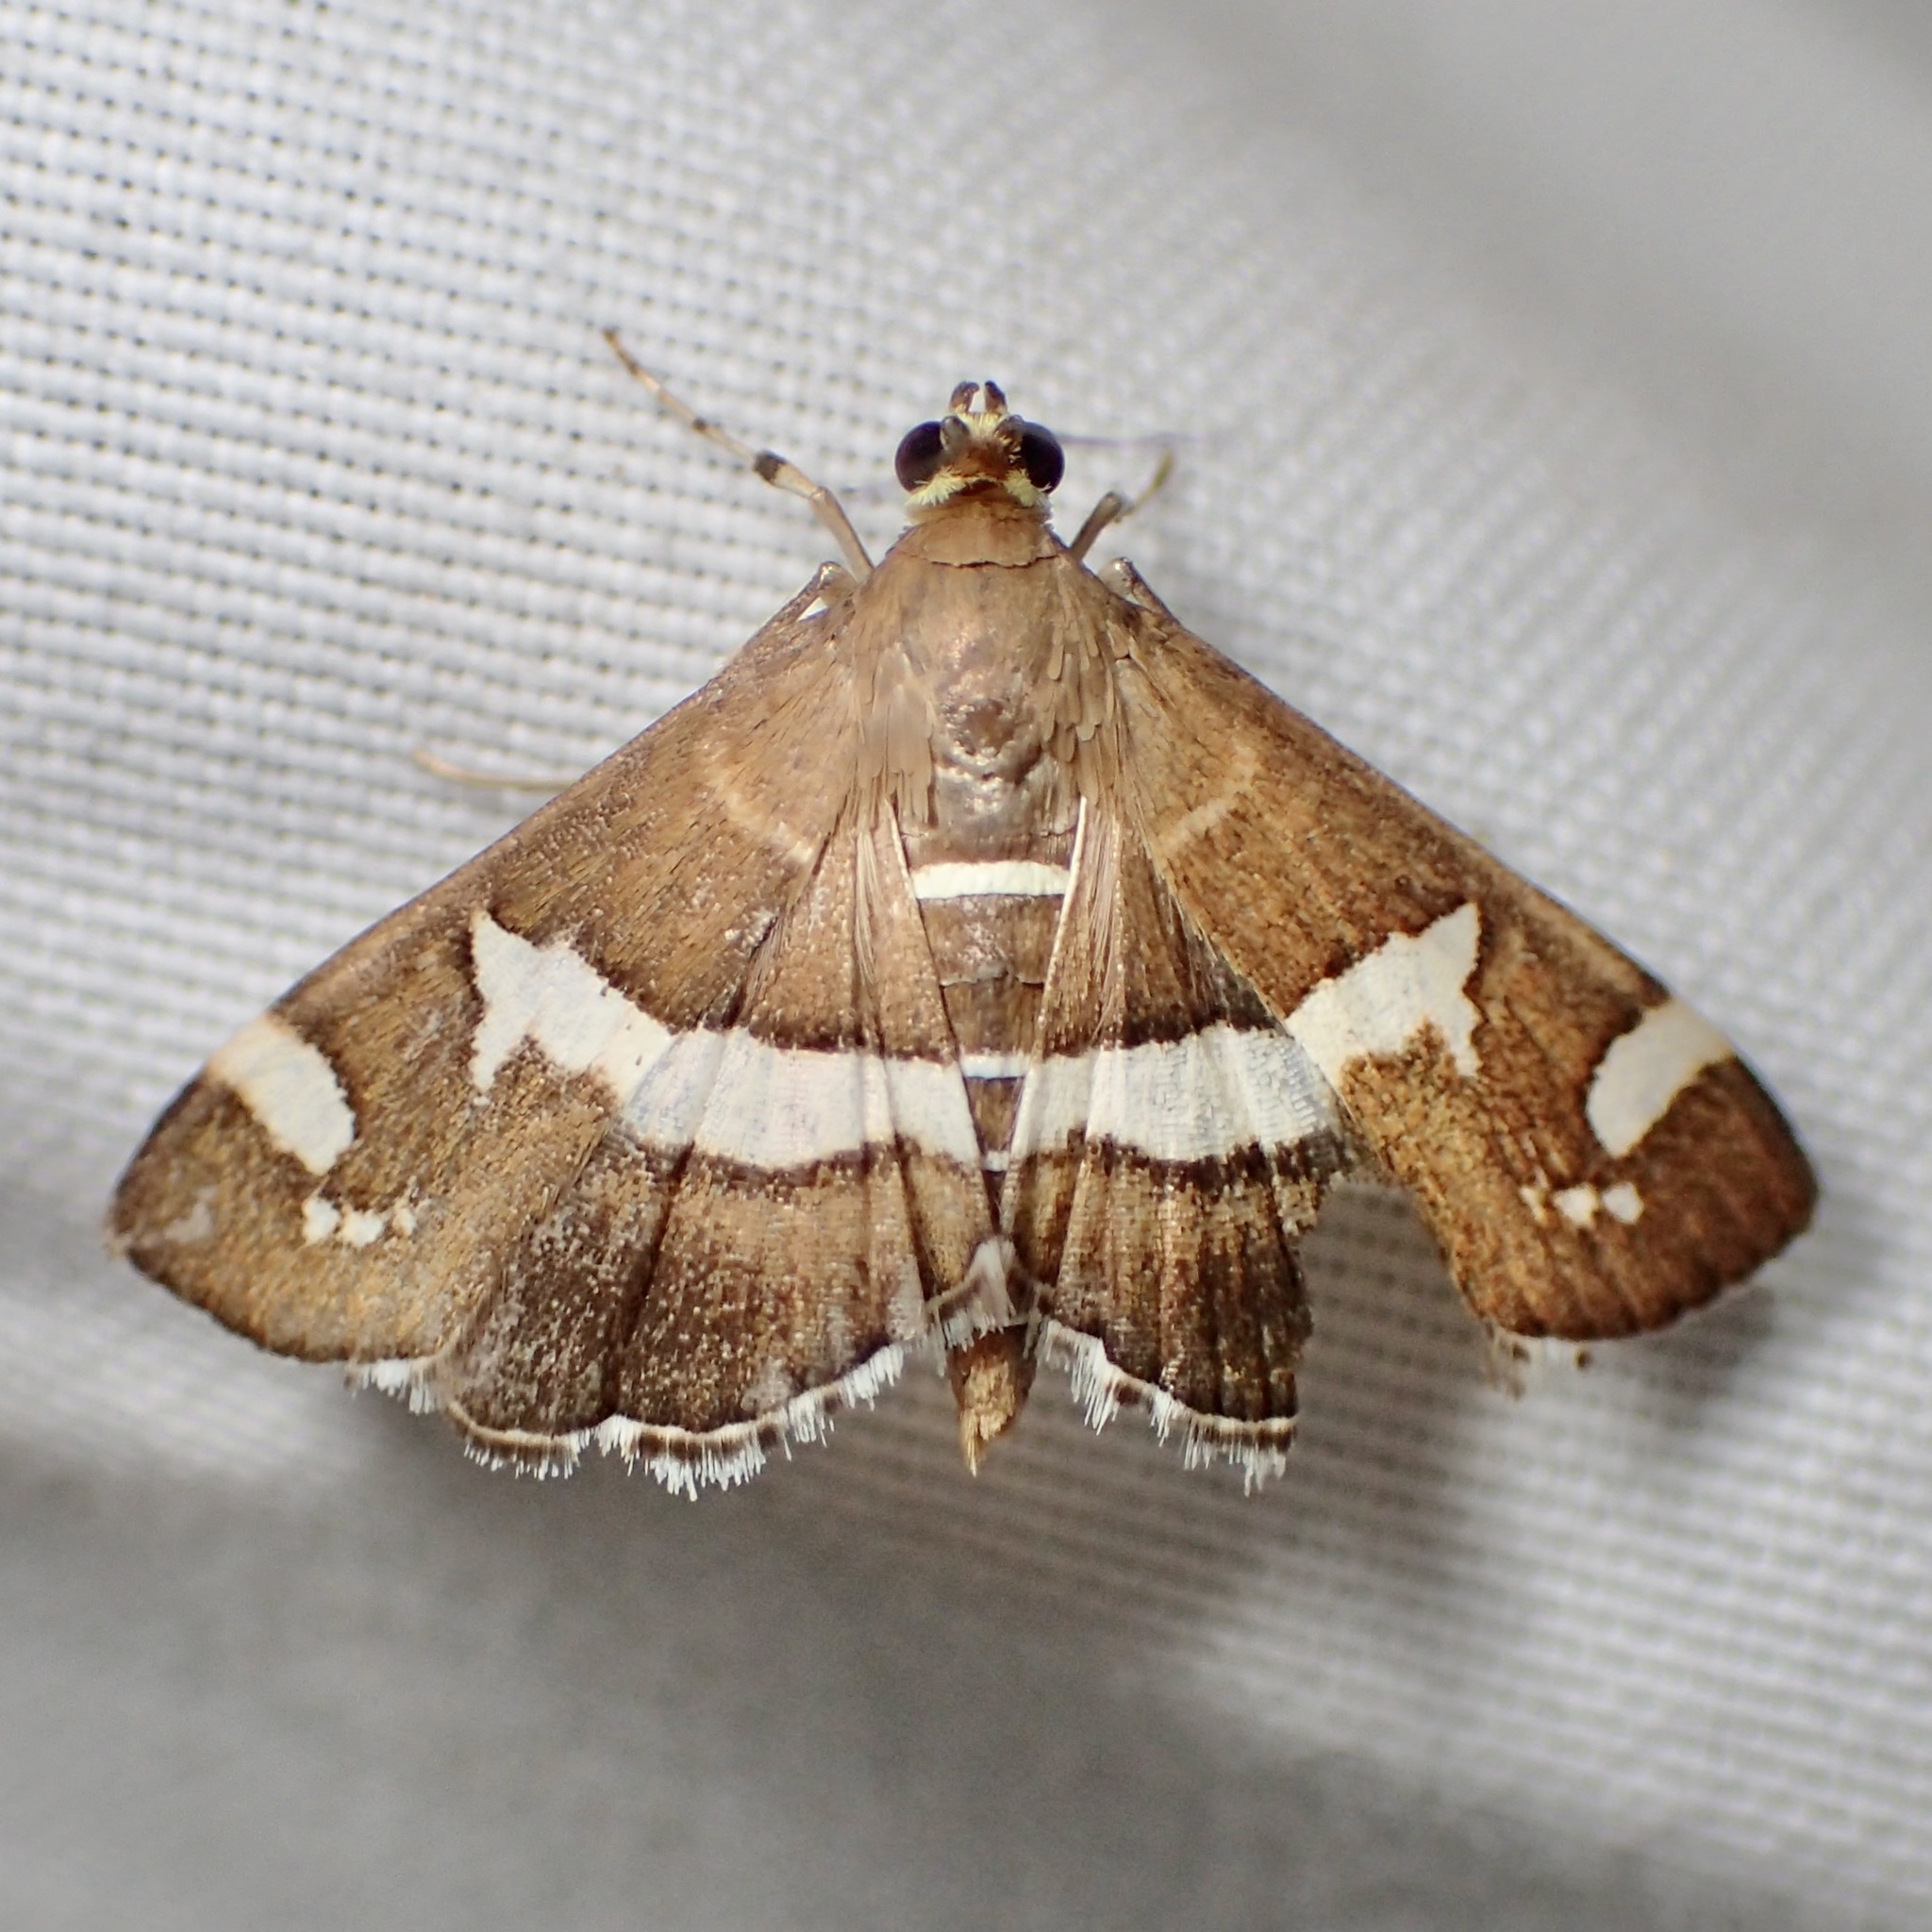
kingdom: Animalia
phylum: Arthropoda
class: Insecta
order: Lepidoptera
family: Crambidae
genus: Spoladea
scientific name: Spoladea recurvalis
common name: Beet webworm moth
